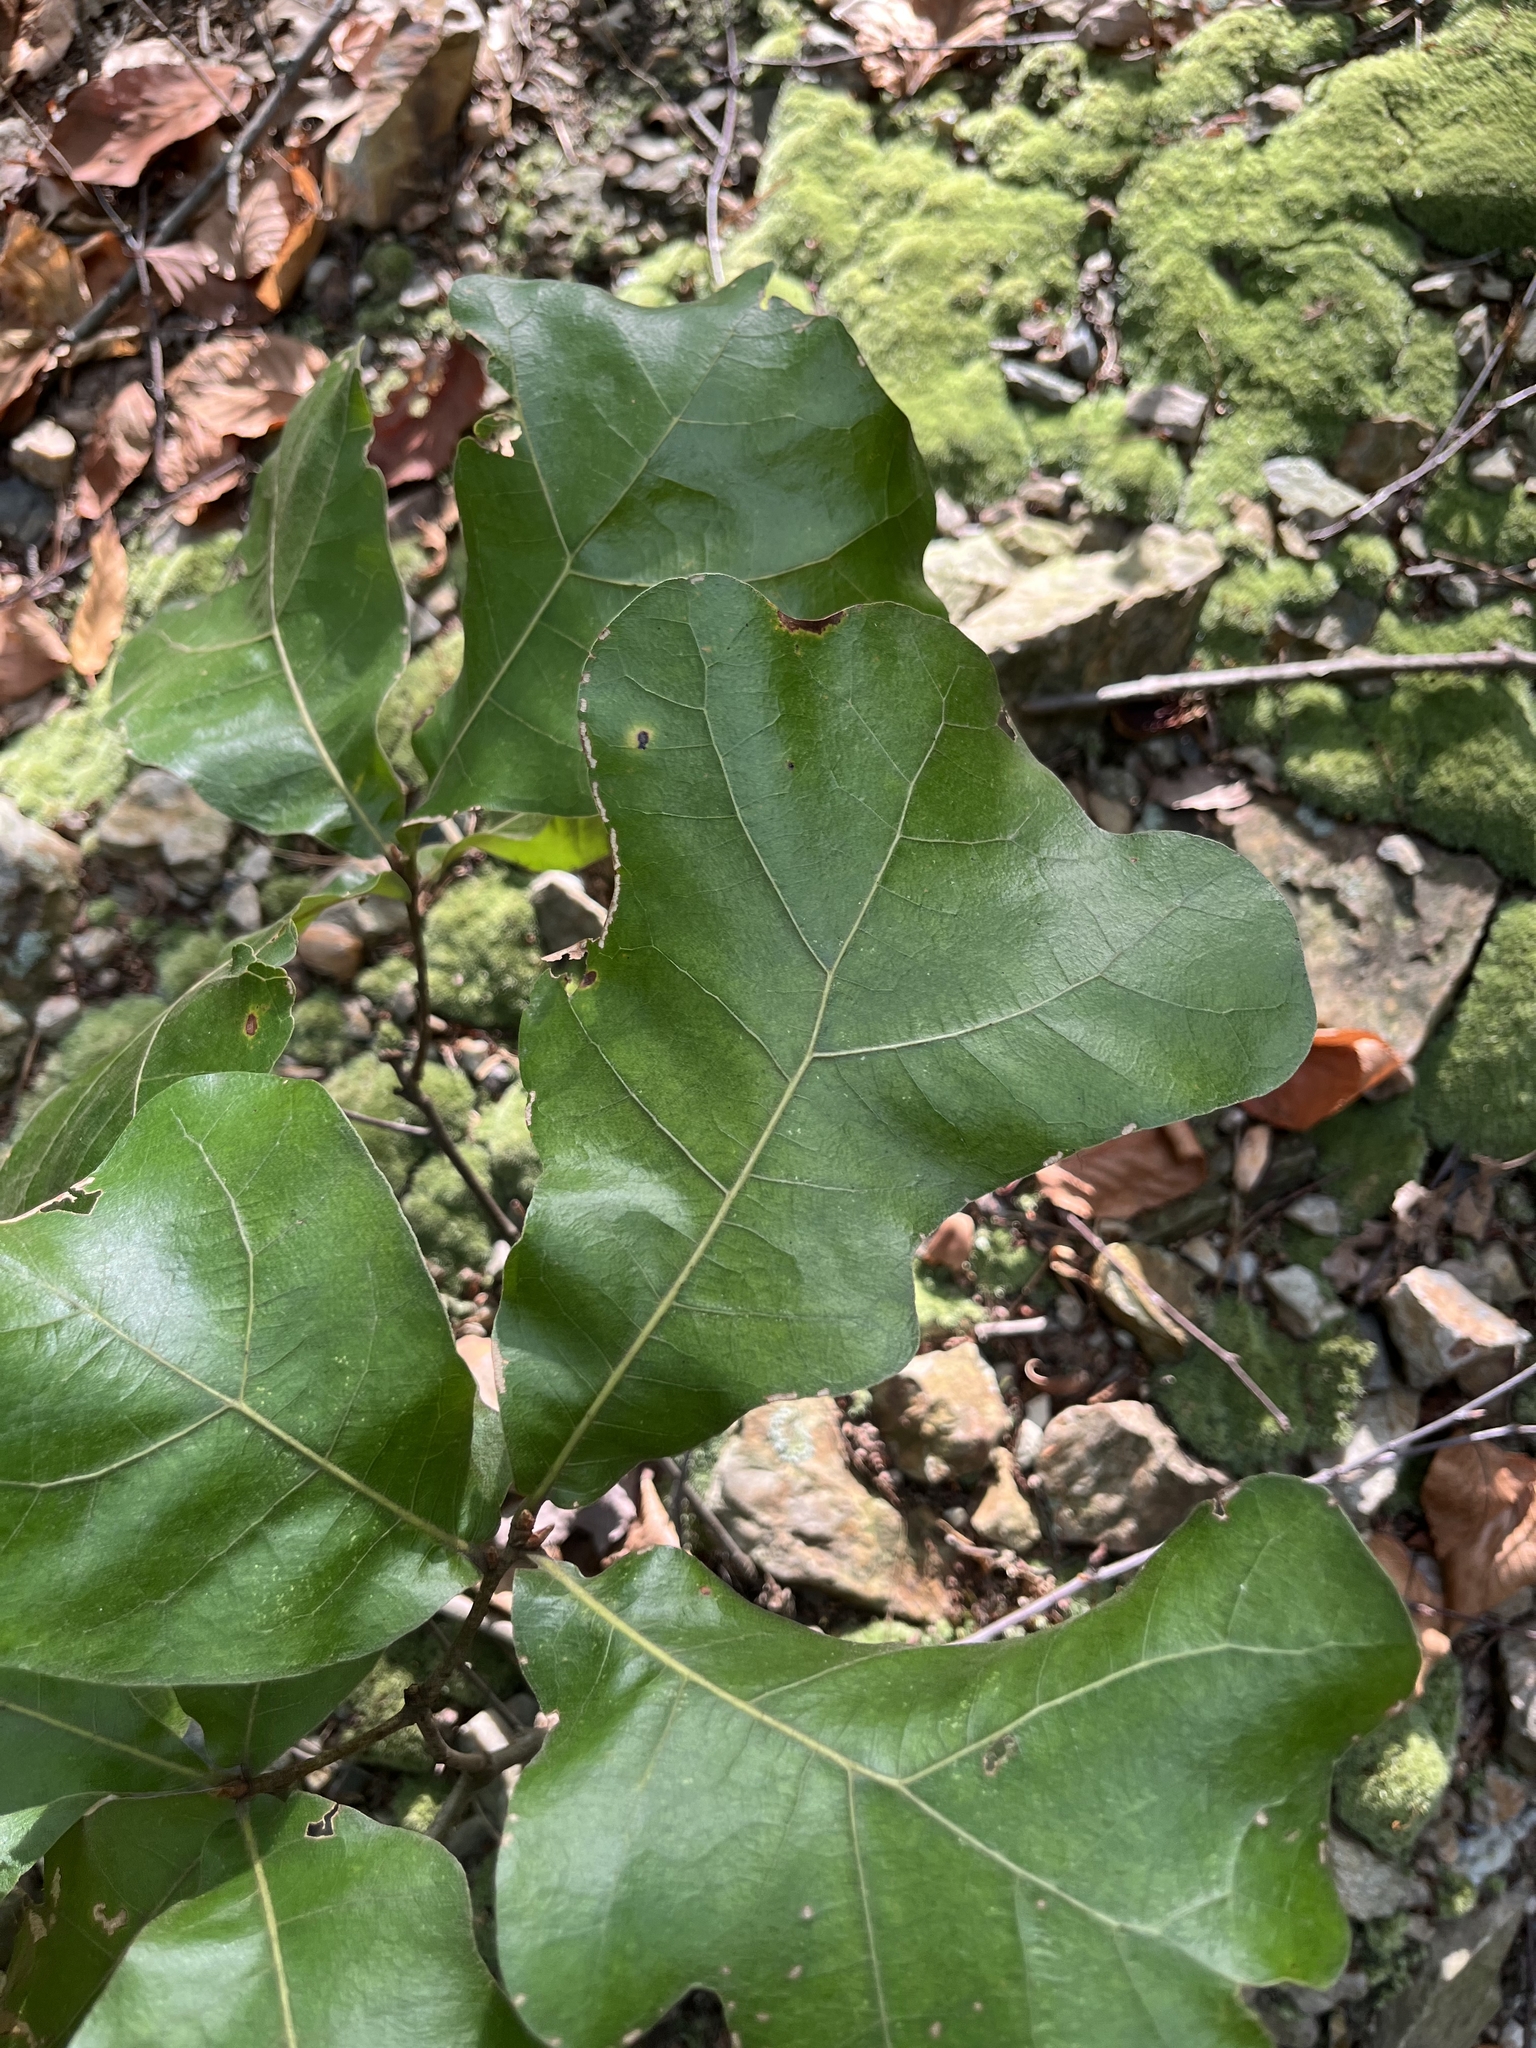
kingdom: Plantae
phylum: Tracheophyta
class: Magnoliopsida
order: Fagales
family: Fagaceae
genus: Quercus
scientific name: Quercus marilandica
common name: Blackjack oak
